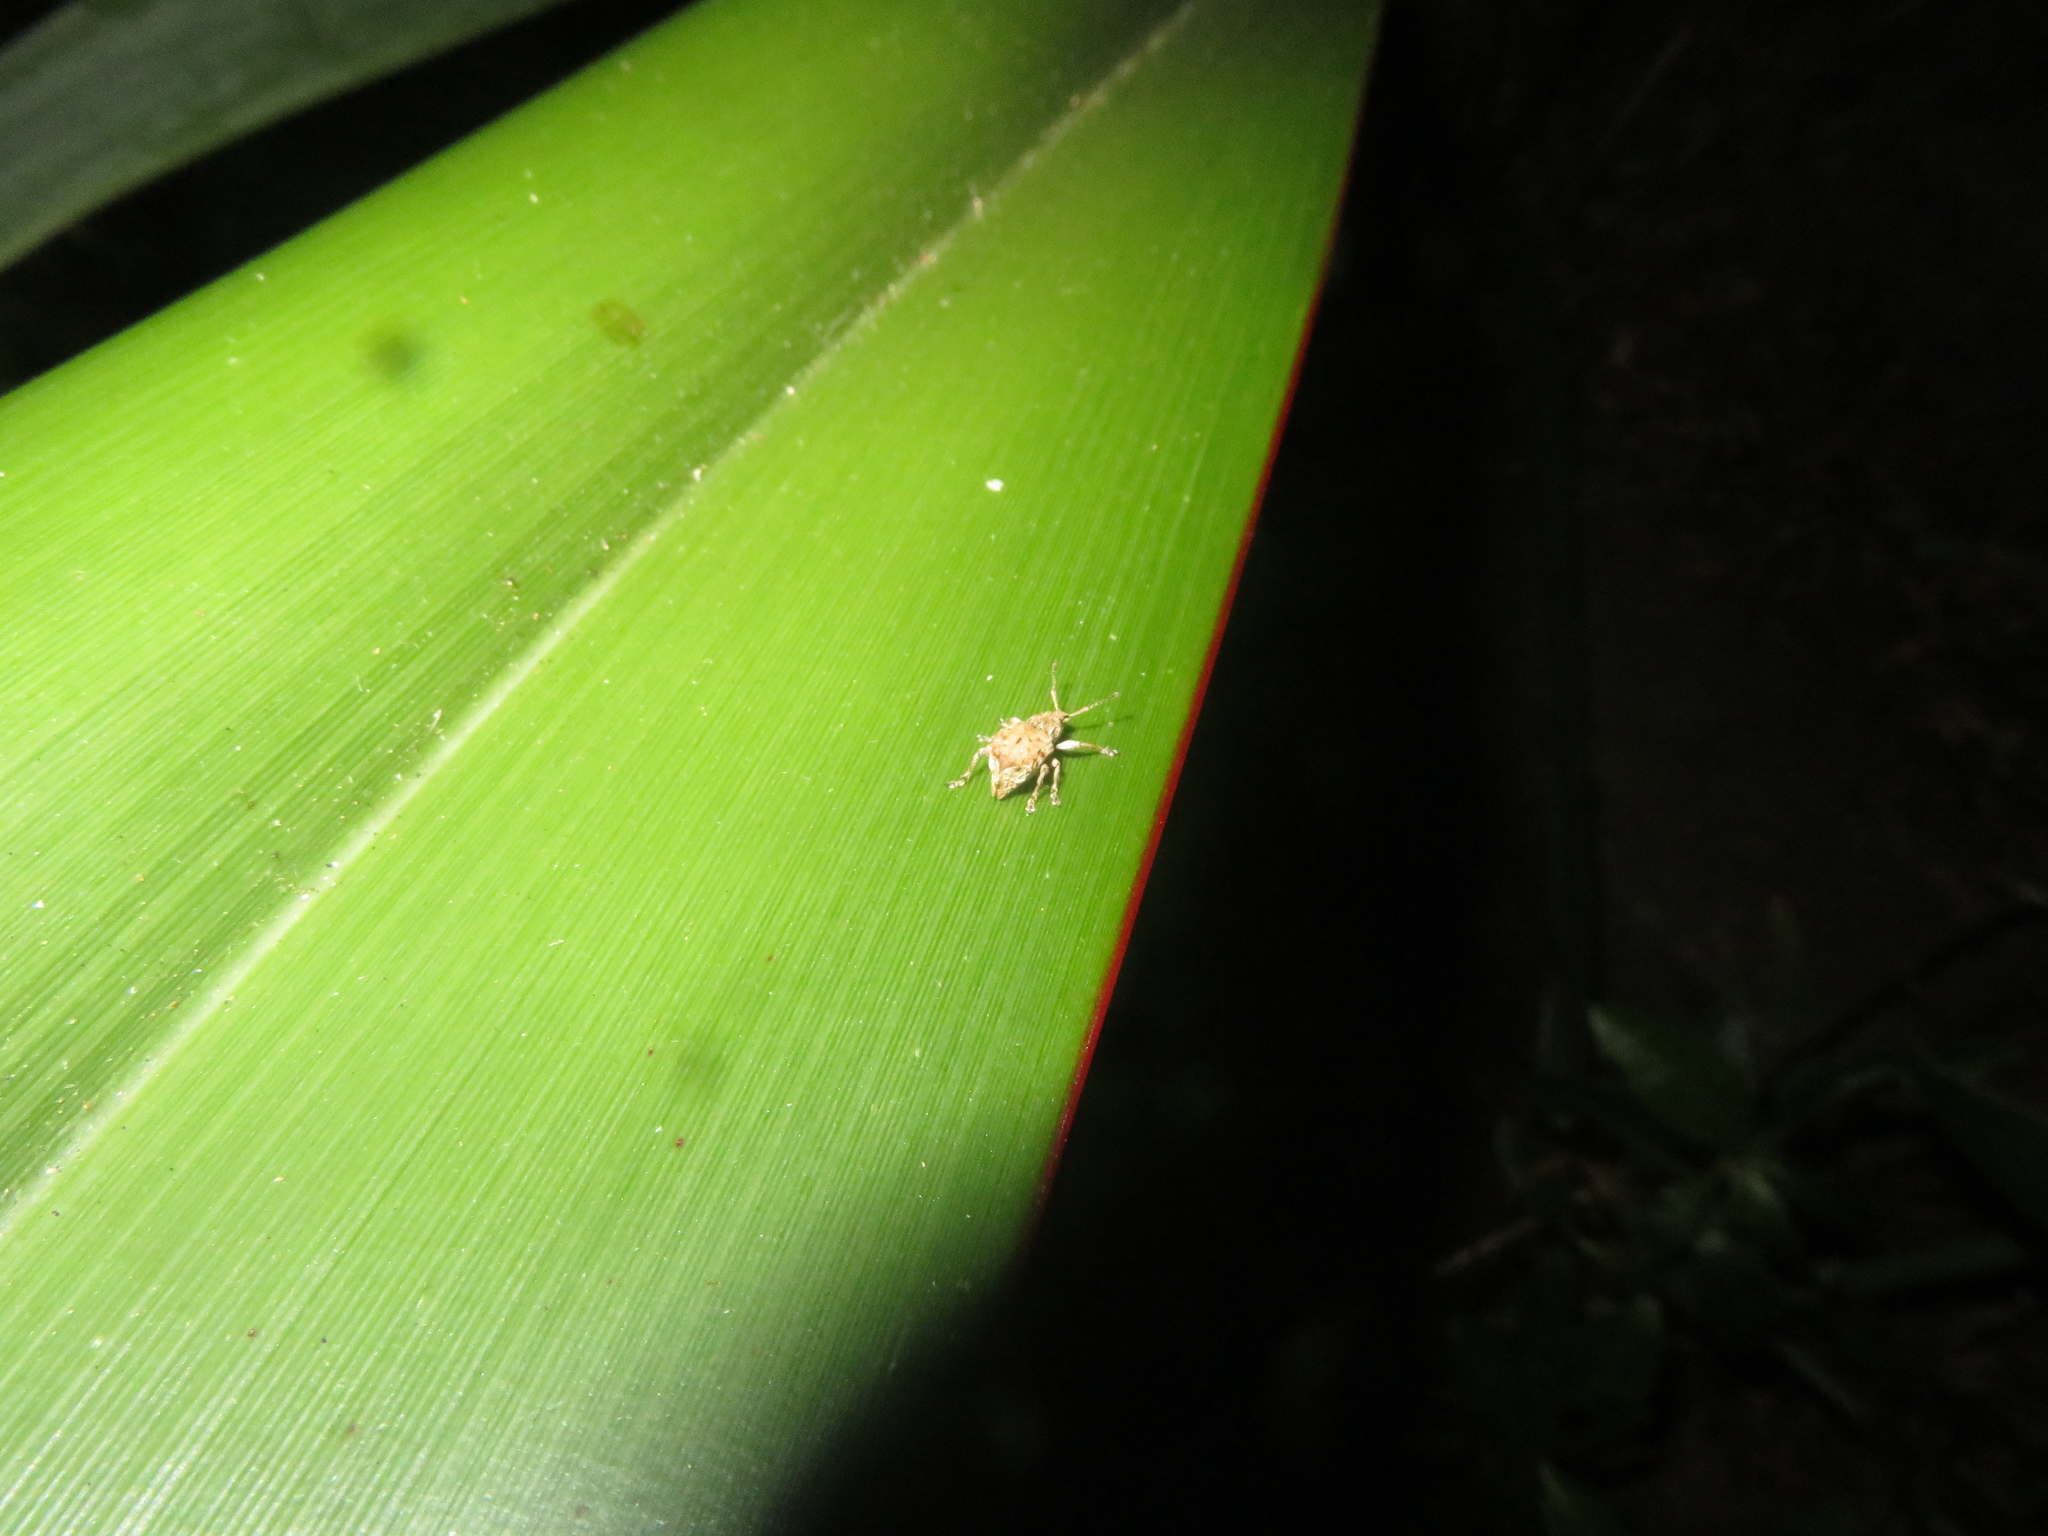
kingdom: Animalia
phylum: Arthropoda
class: Insecta
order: Coleoptera
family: Curculionidae
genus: Chalepistes
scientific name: Chalepistes costifer
